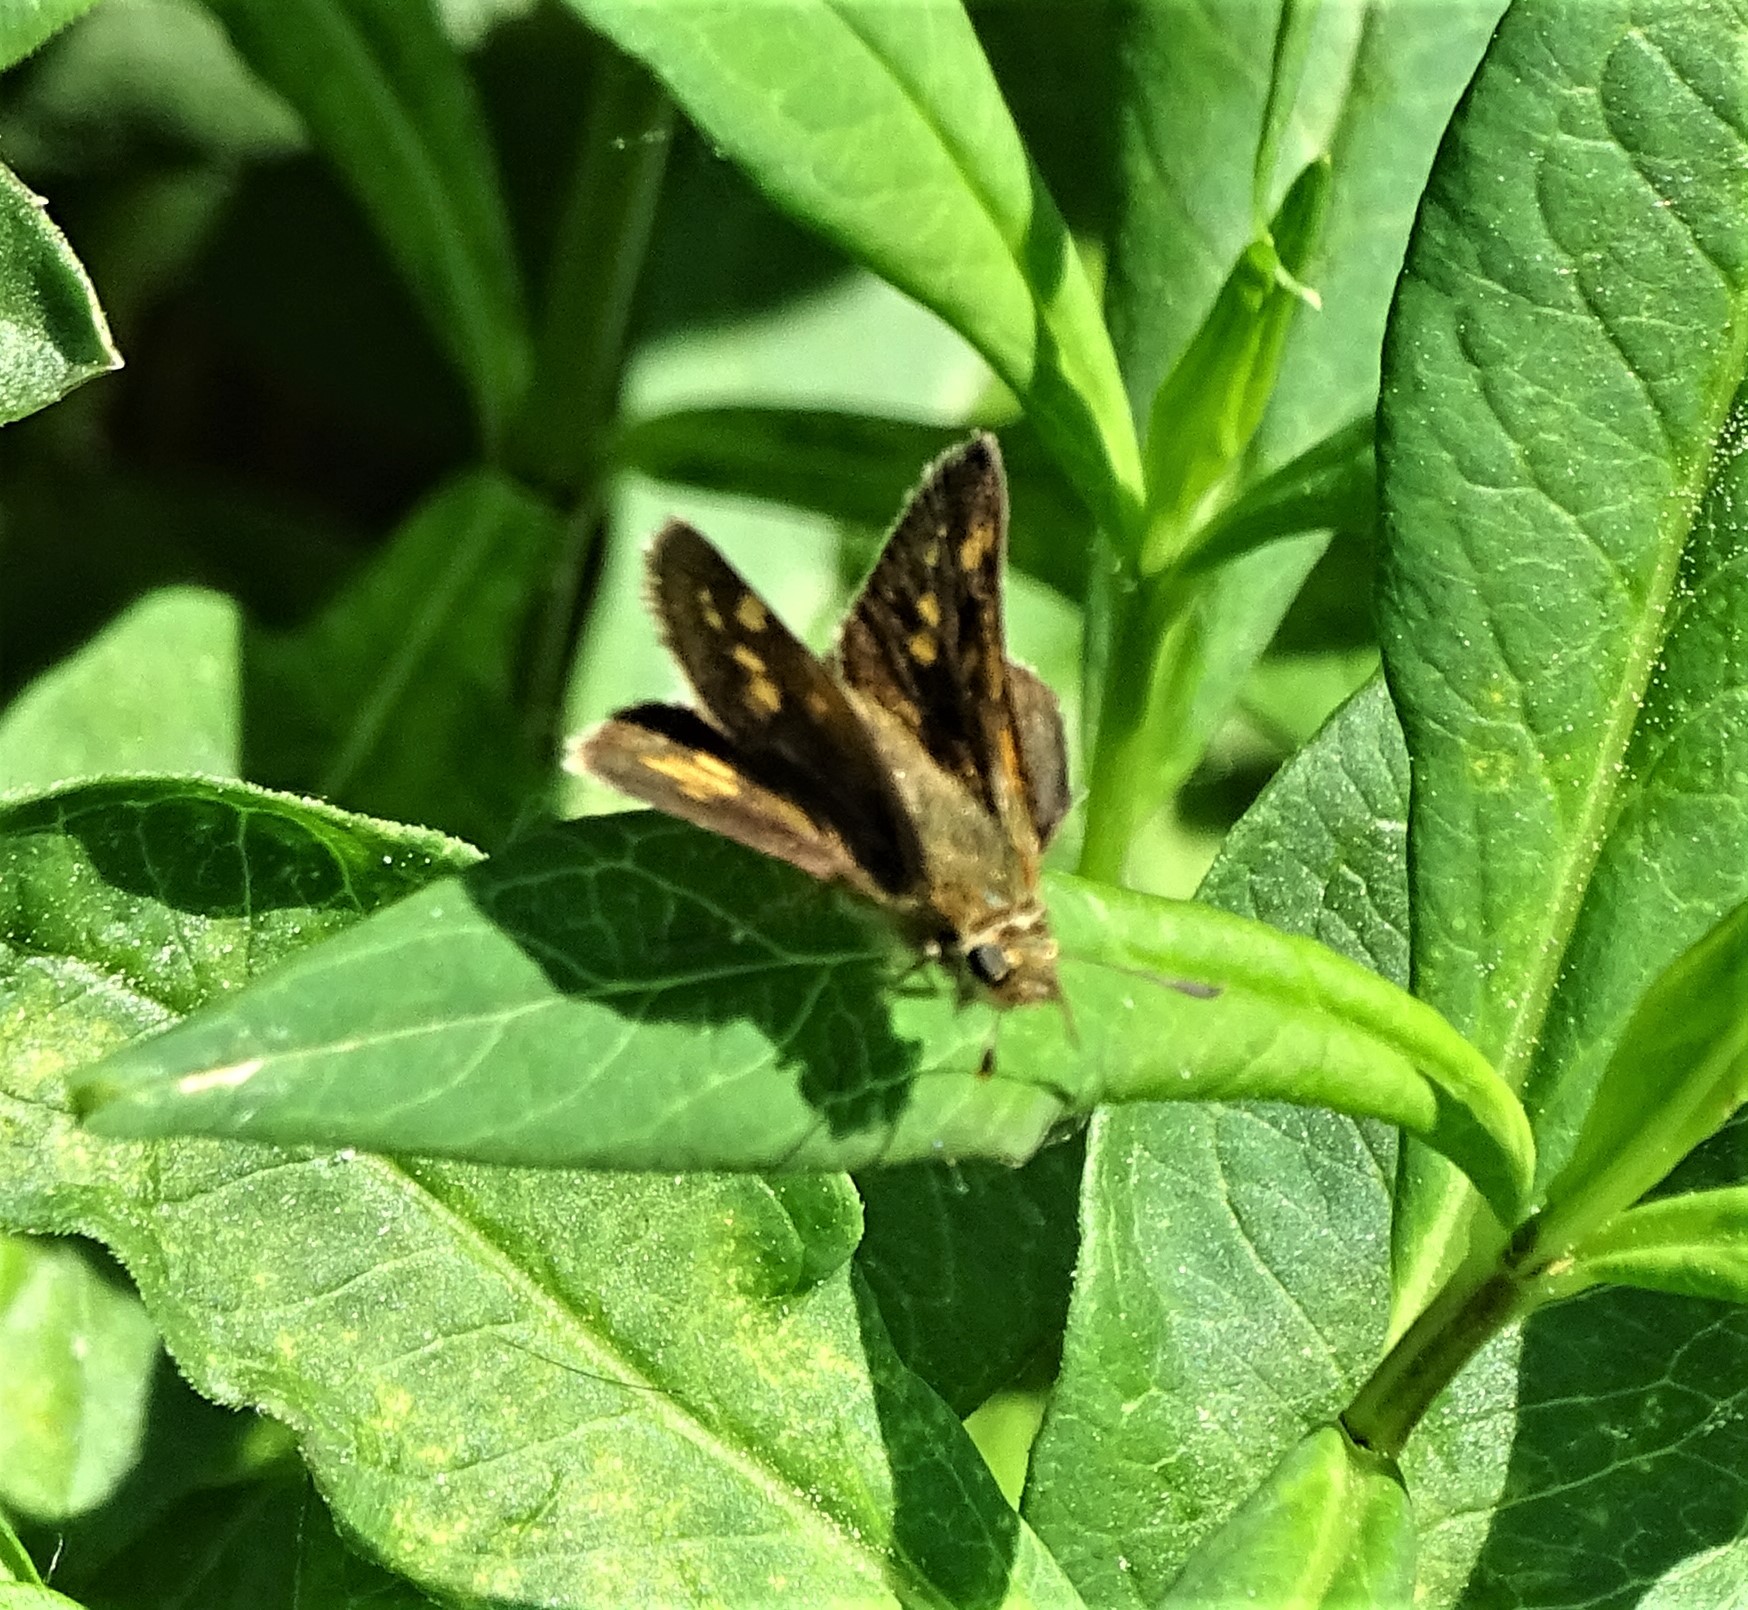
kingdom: Animalia
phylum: Arthropoda
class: Insecta
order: Lepidoptera
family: Hesperiidae
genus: Polites
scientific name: Polites coras
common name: Peck's skipper
